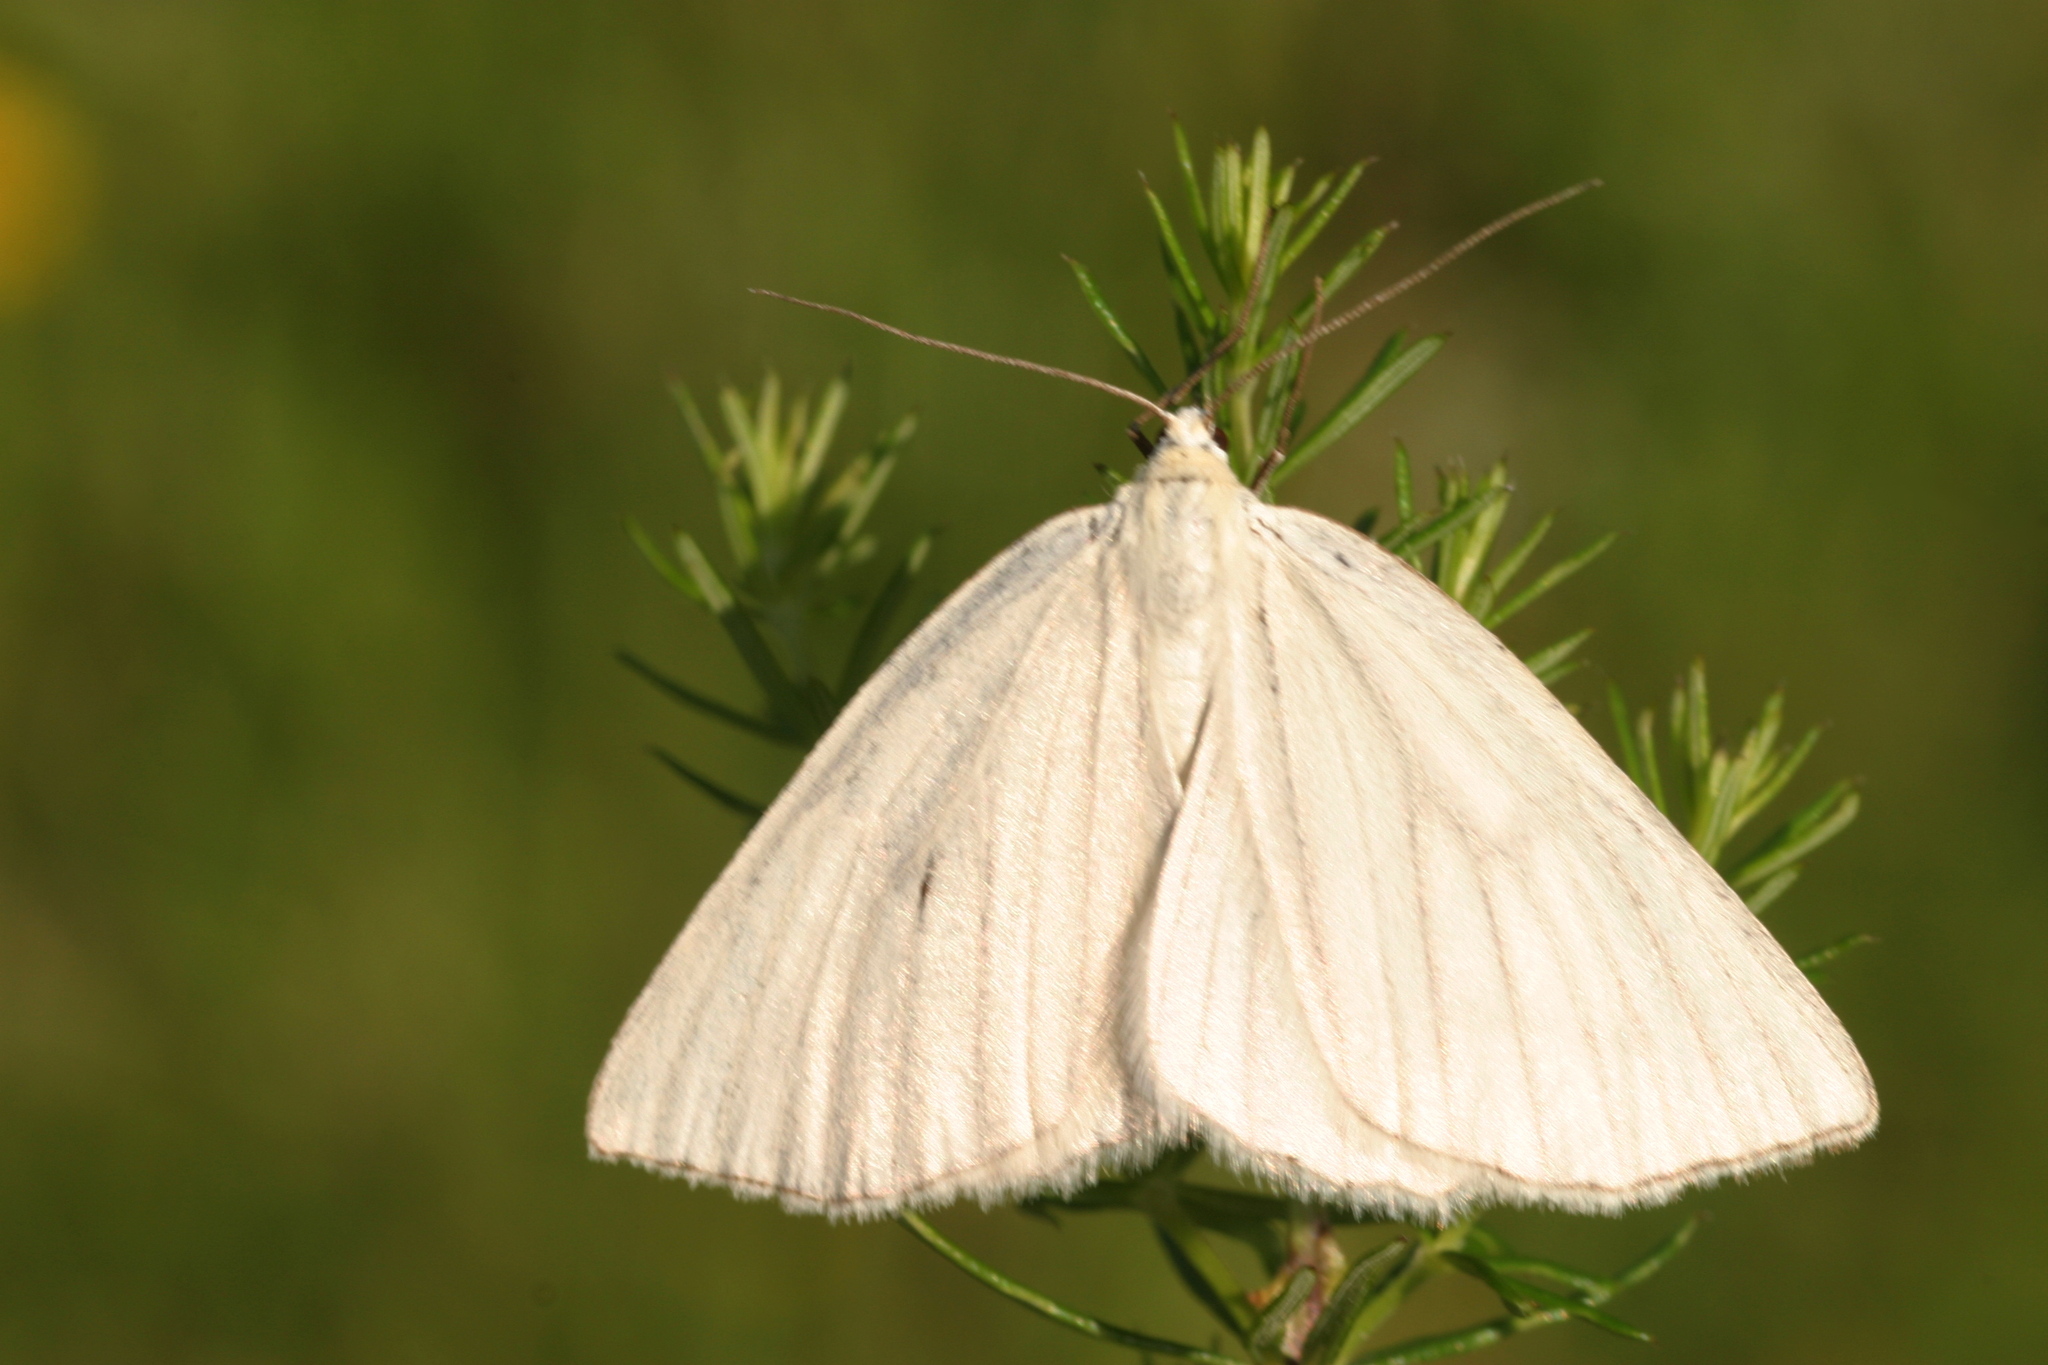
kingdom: Animalia
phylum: Arthropoda
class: Insecta
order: Lepidoptera
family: Geometridae
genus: Siona
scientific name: Siona lineata
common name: Black-veined moth
